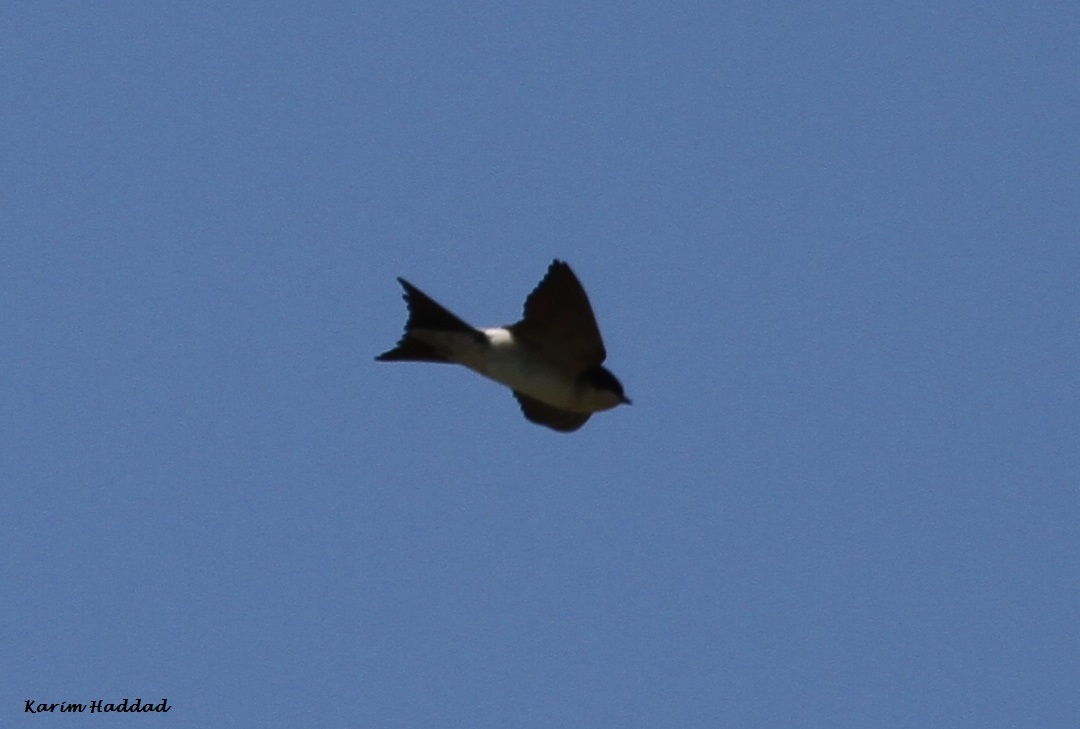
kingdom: Animalia
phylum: Chordata
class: Aves
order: Passeriformes
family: Hirundinidae
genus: Delichon
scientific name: Delichon urbicum
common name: Common house martin
